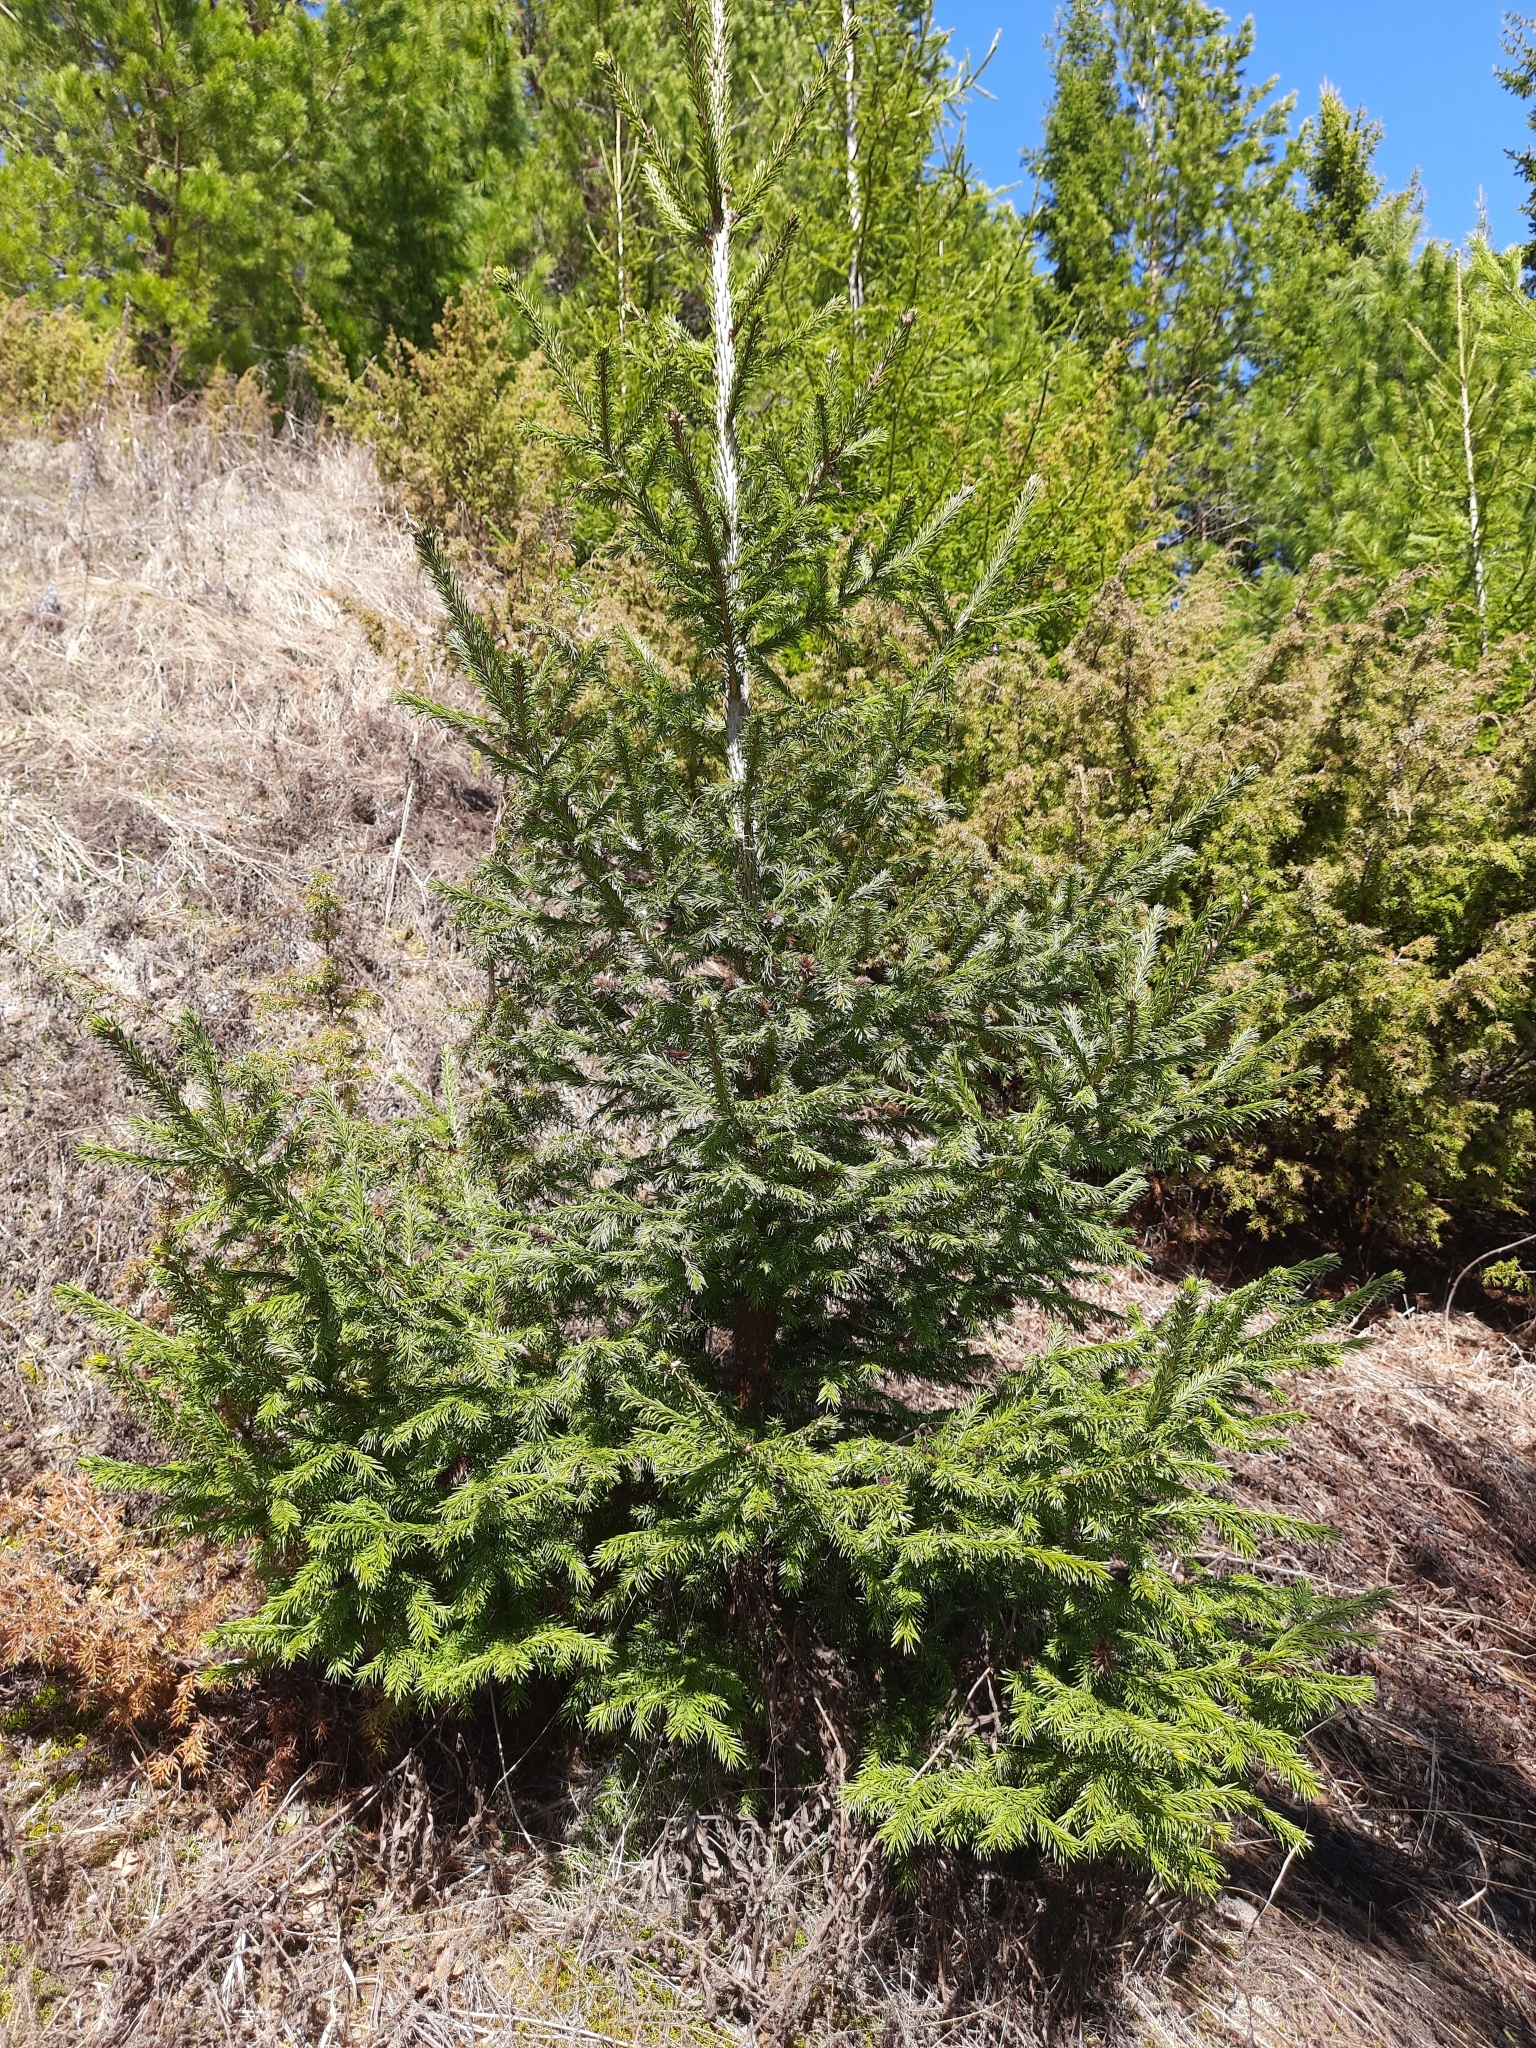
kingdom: Plantae
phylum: Tracheophyta
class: Pinopsida
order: Pinales
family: Pinaceae
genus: Picea
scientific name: Picea obovata
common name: Siberian spruce
